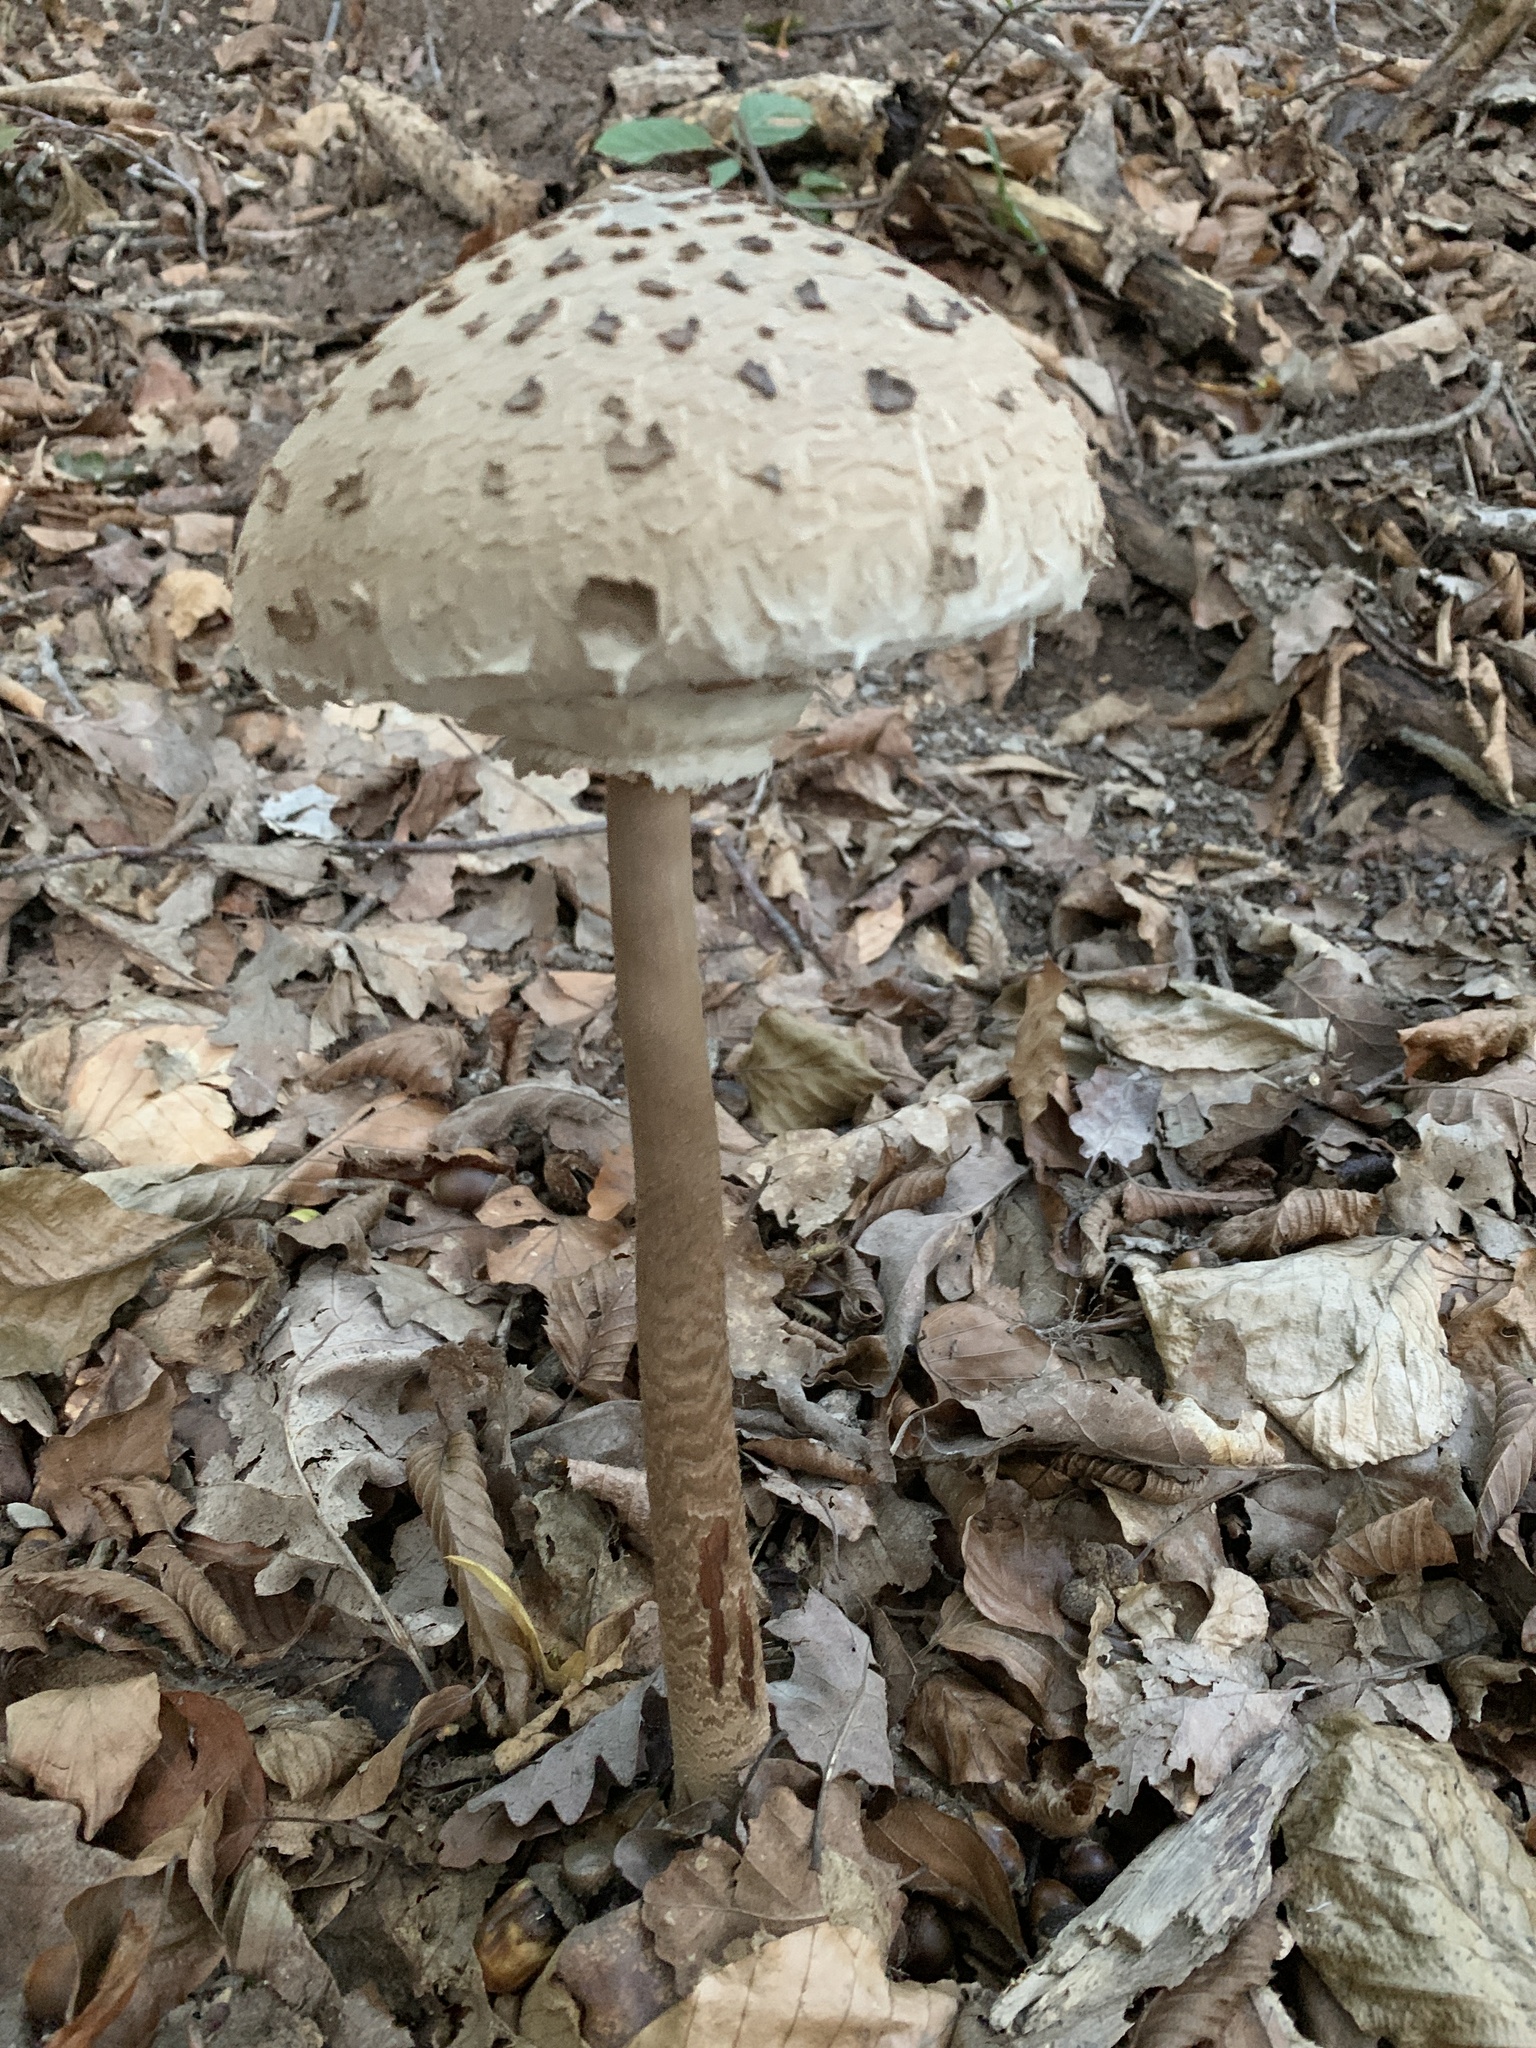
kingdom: Fungi
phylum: Basidiomycota
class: Agaricomycetes
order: Agaricales
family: Agaricaceae
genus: Macrolepiota
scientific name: Macrolepiota procera
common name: Parasol
